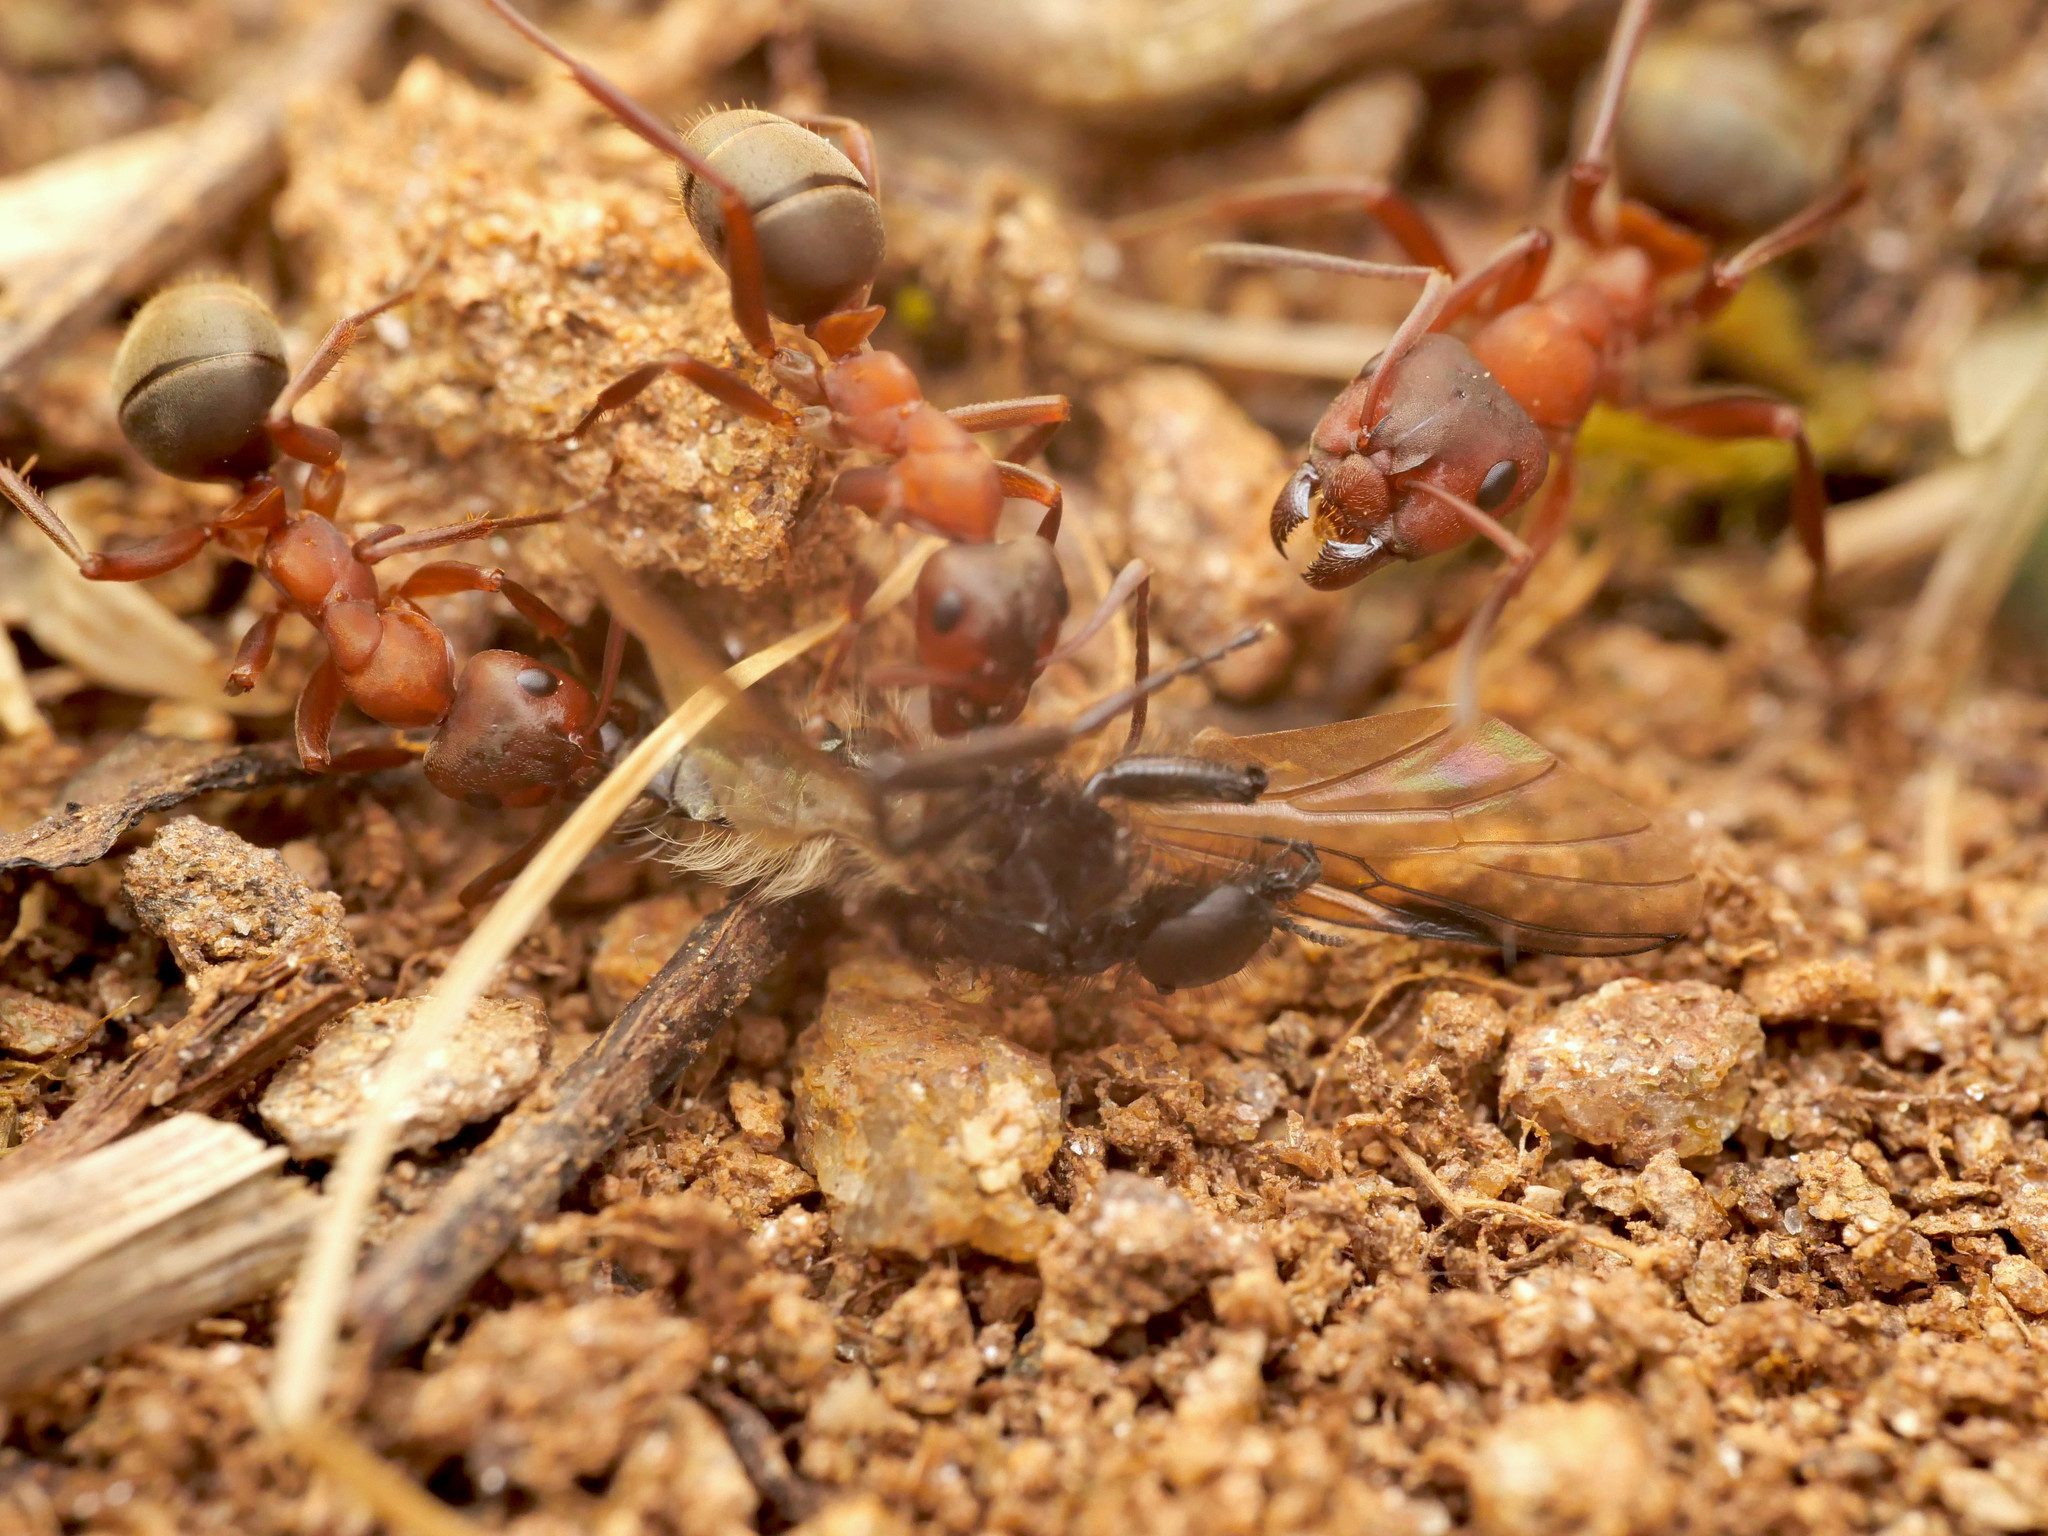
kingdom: Animalia
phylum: Arthropoda
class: Insecta
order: Hymenoptera
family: Formicidae
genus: Formica
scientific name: Formica sanguinea
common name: Blood-red ant
